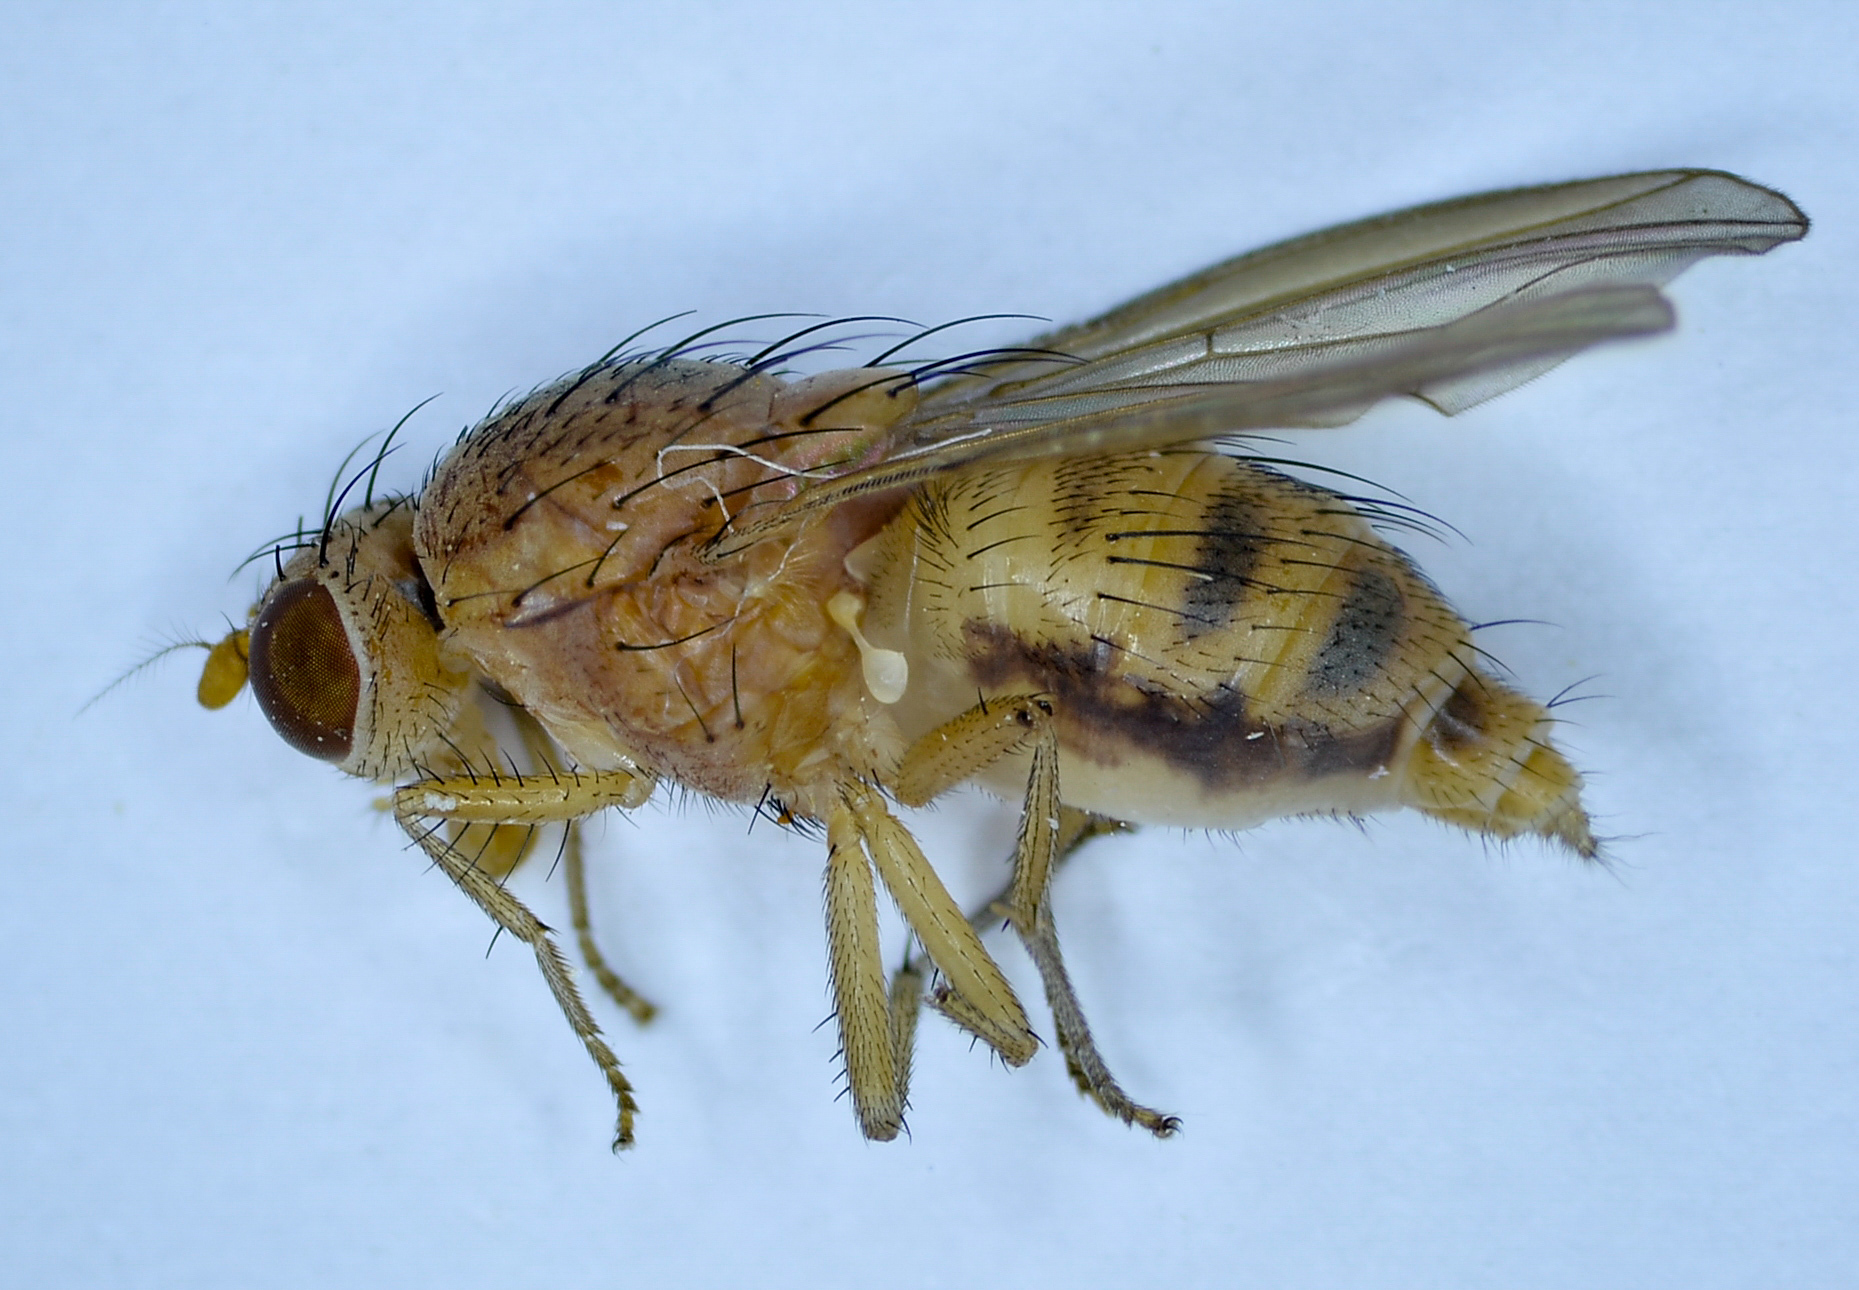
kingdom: Animalia
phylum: Arthropoda
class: Insecta
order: Diptera
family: Lauxaniidae
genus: Minettia
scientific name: Minettia flaveola
